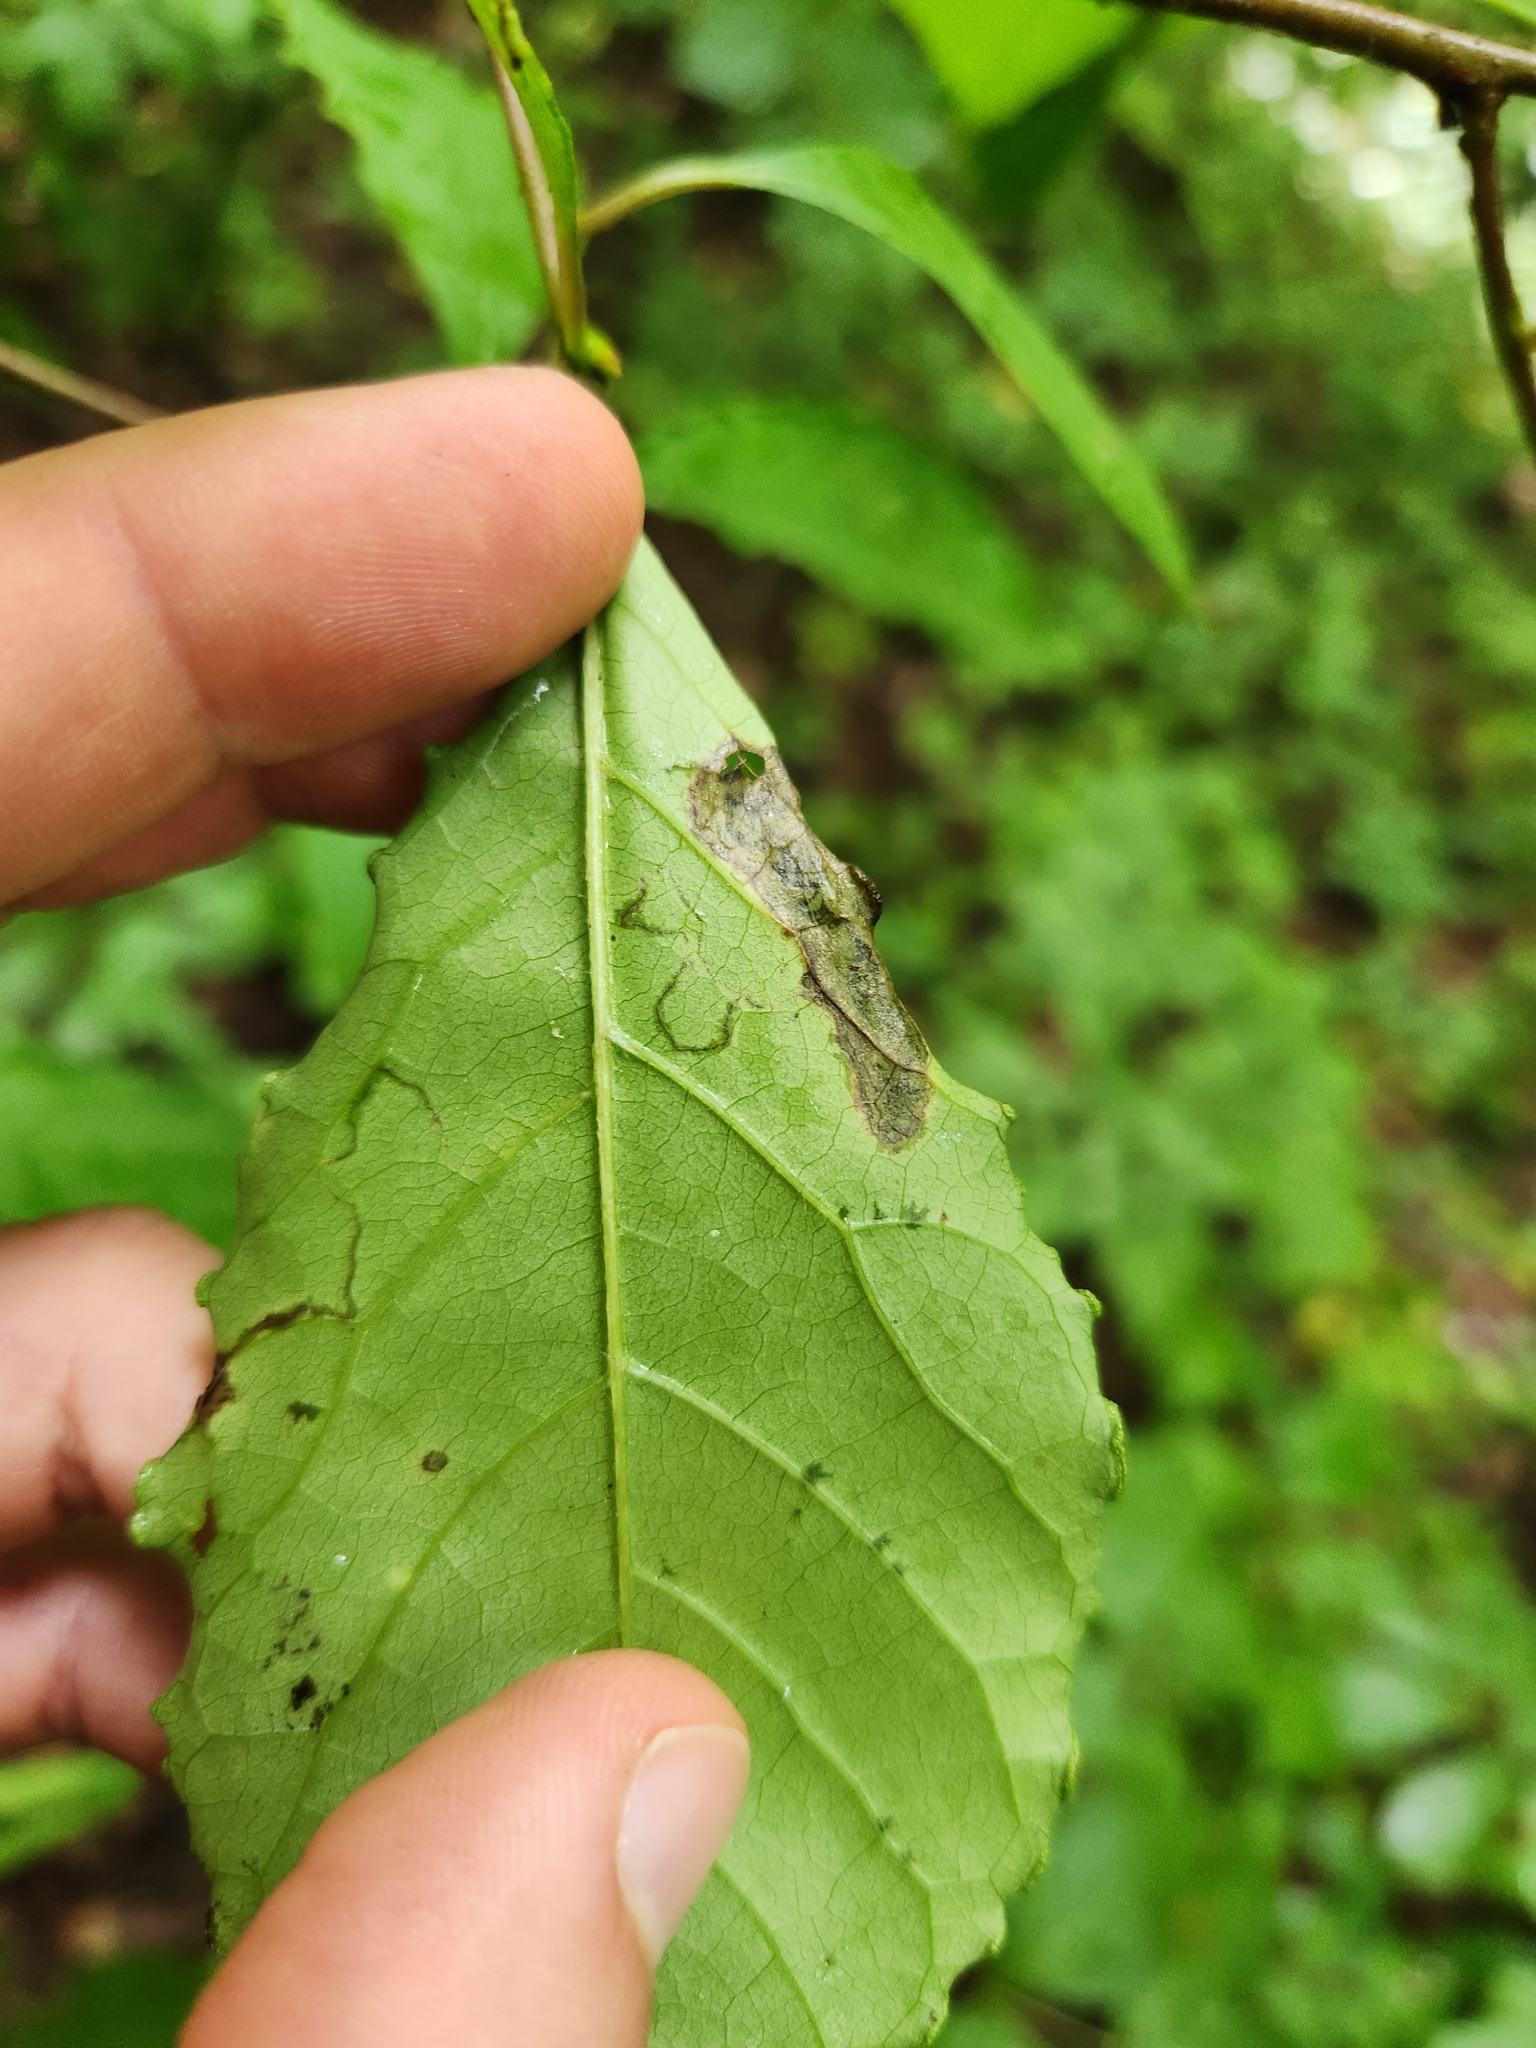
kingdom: Animalia
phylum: Arthropoda
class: Insecta
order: Lepidoptera
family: Nepticulidae
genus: Ectoedemia
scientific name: Ectoedemia nyssaefoliella
